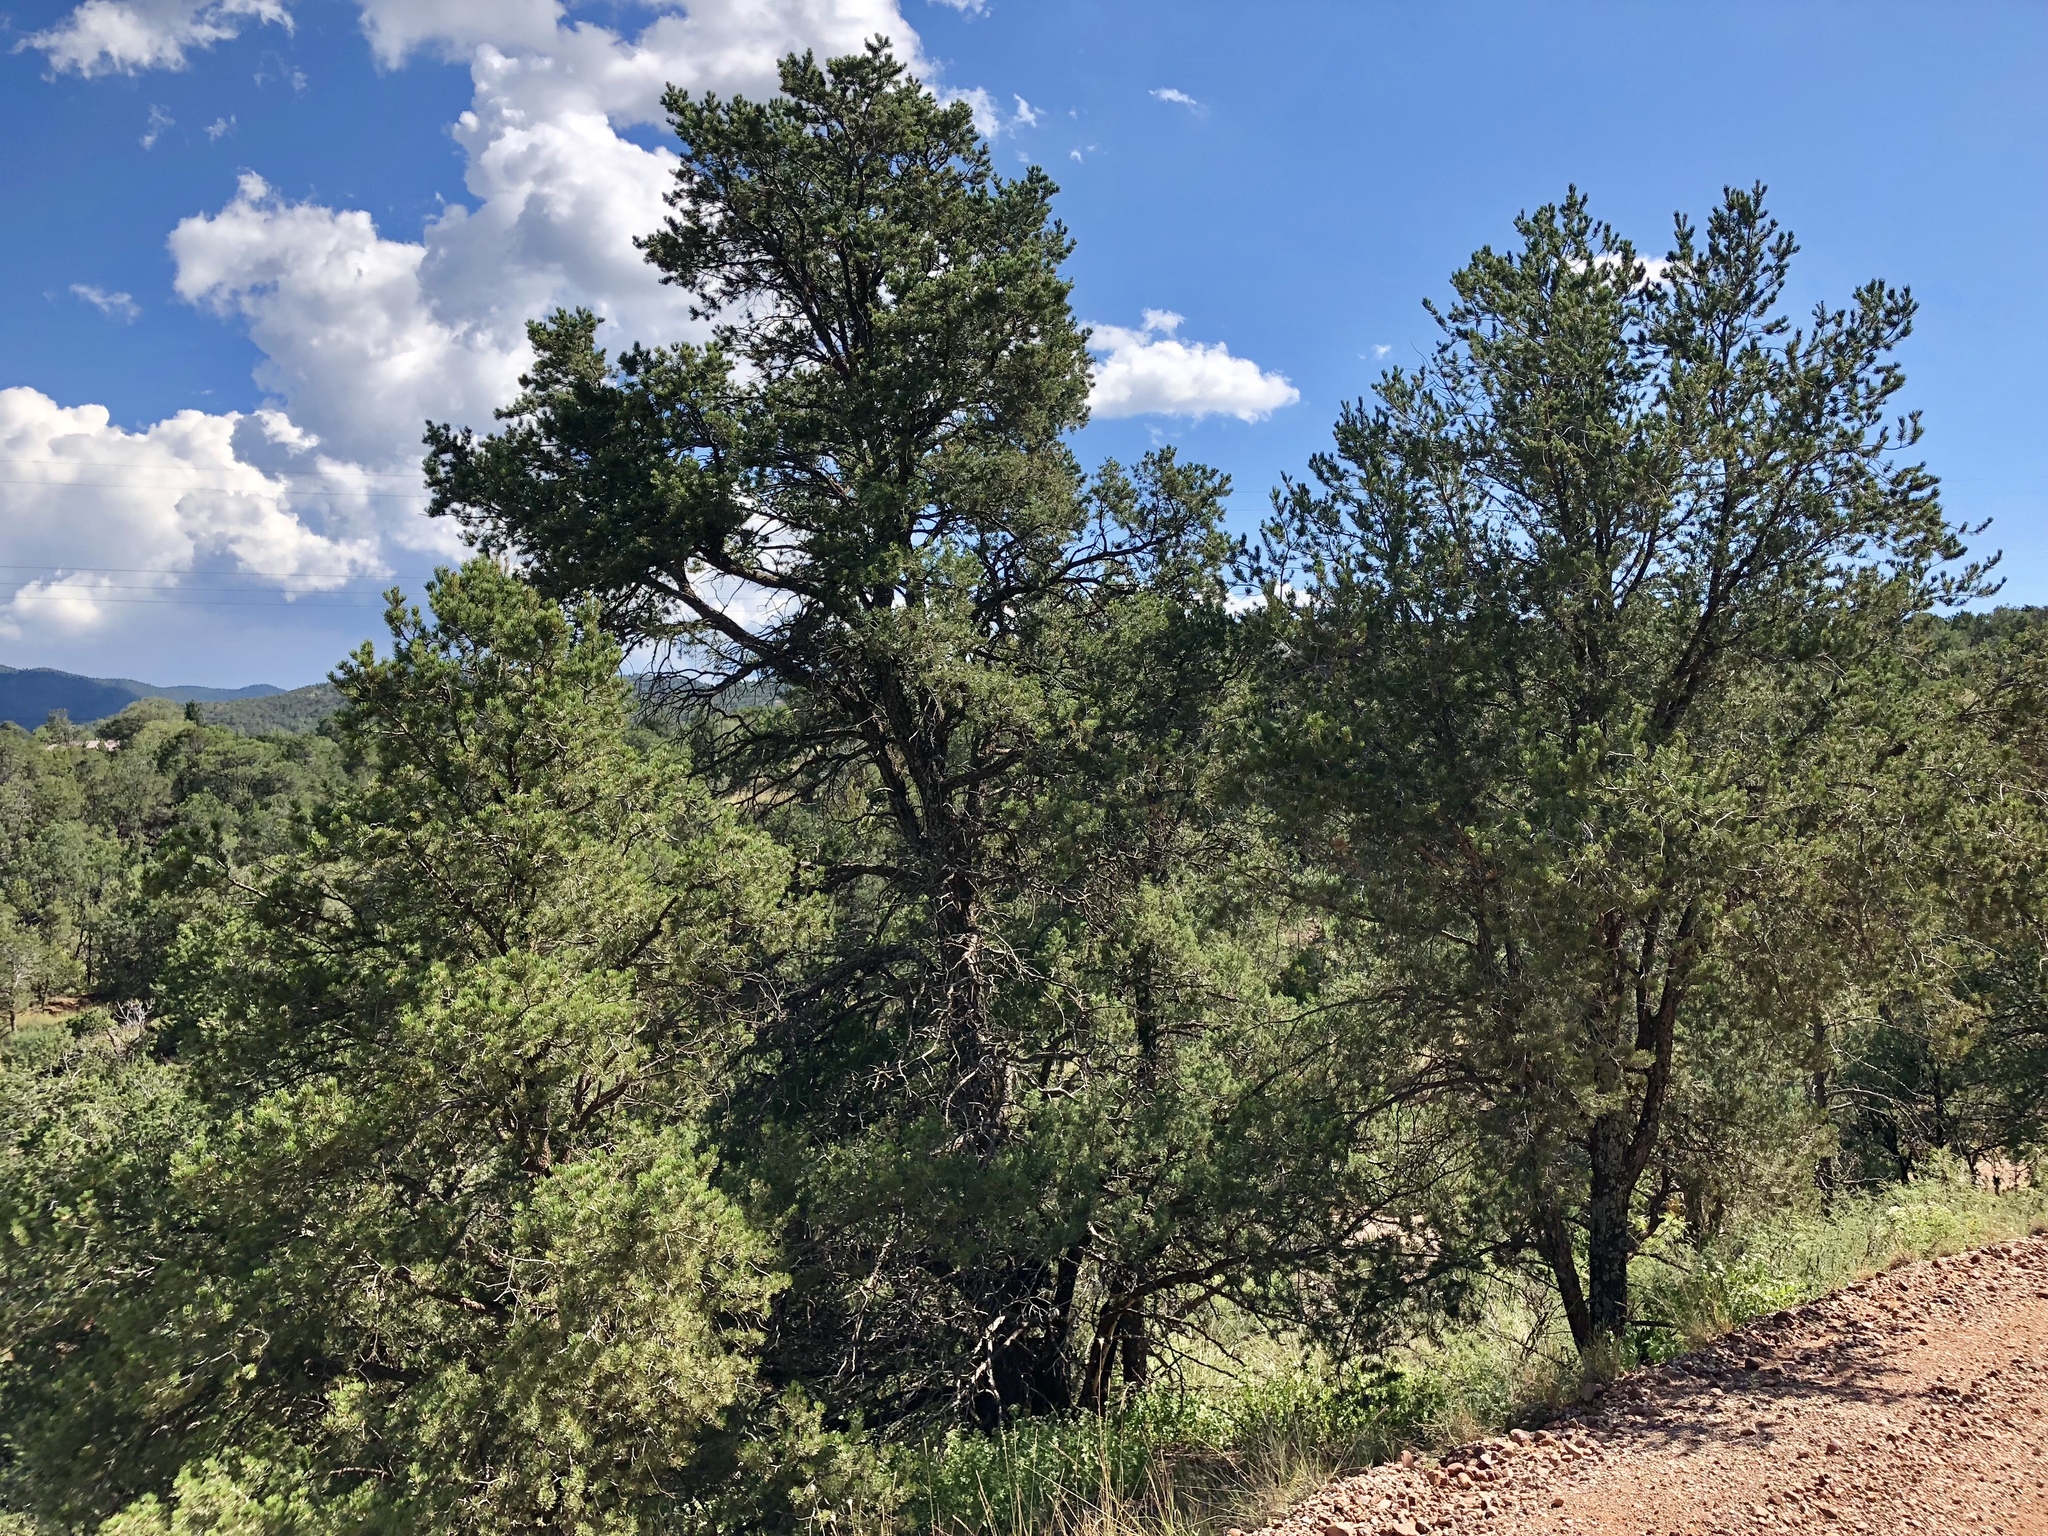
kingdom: Plantae
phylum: Tracheophyta
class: Pinopsida
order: Pinales
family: Pinaceae
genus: Pinus
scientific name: Pinus edulis
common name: Colorado pinyon
